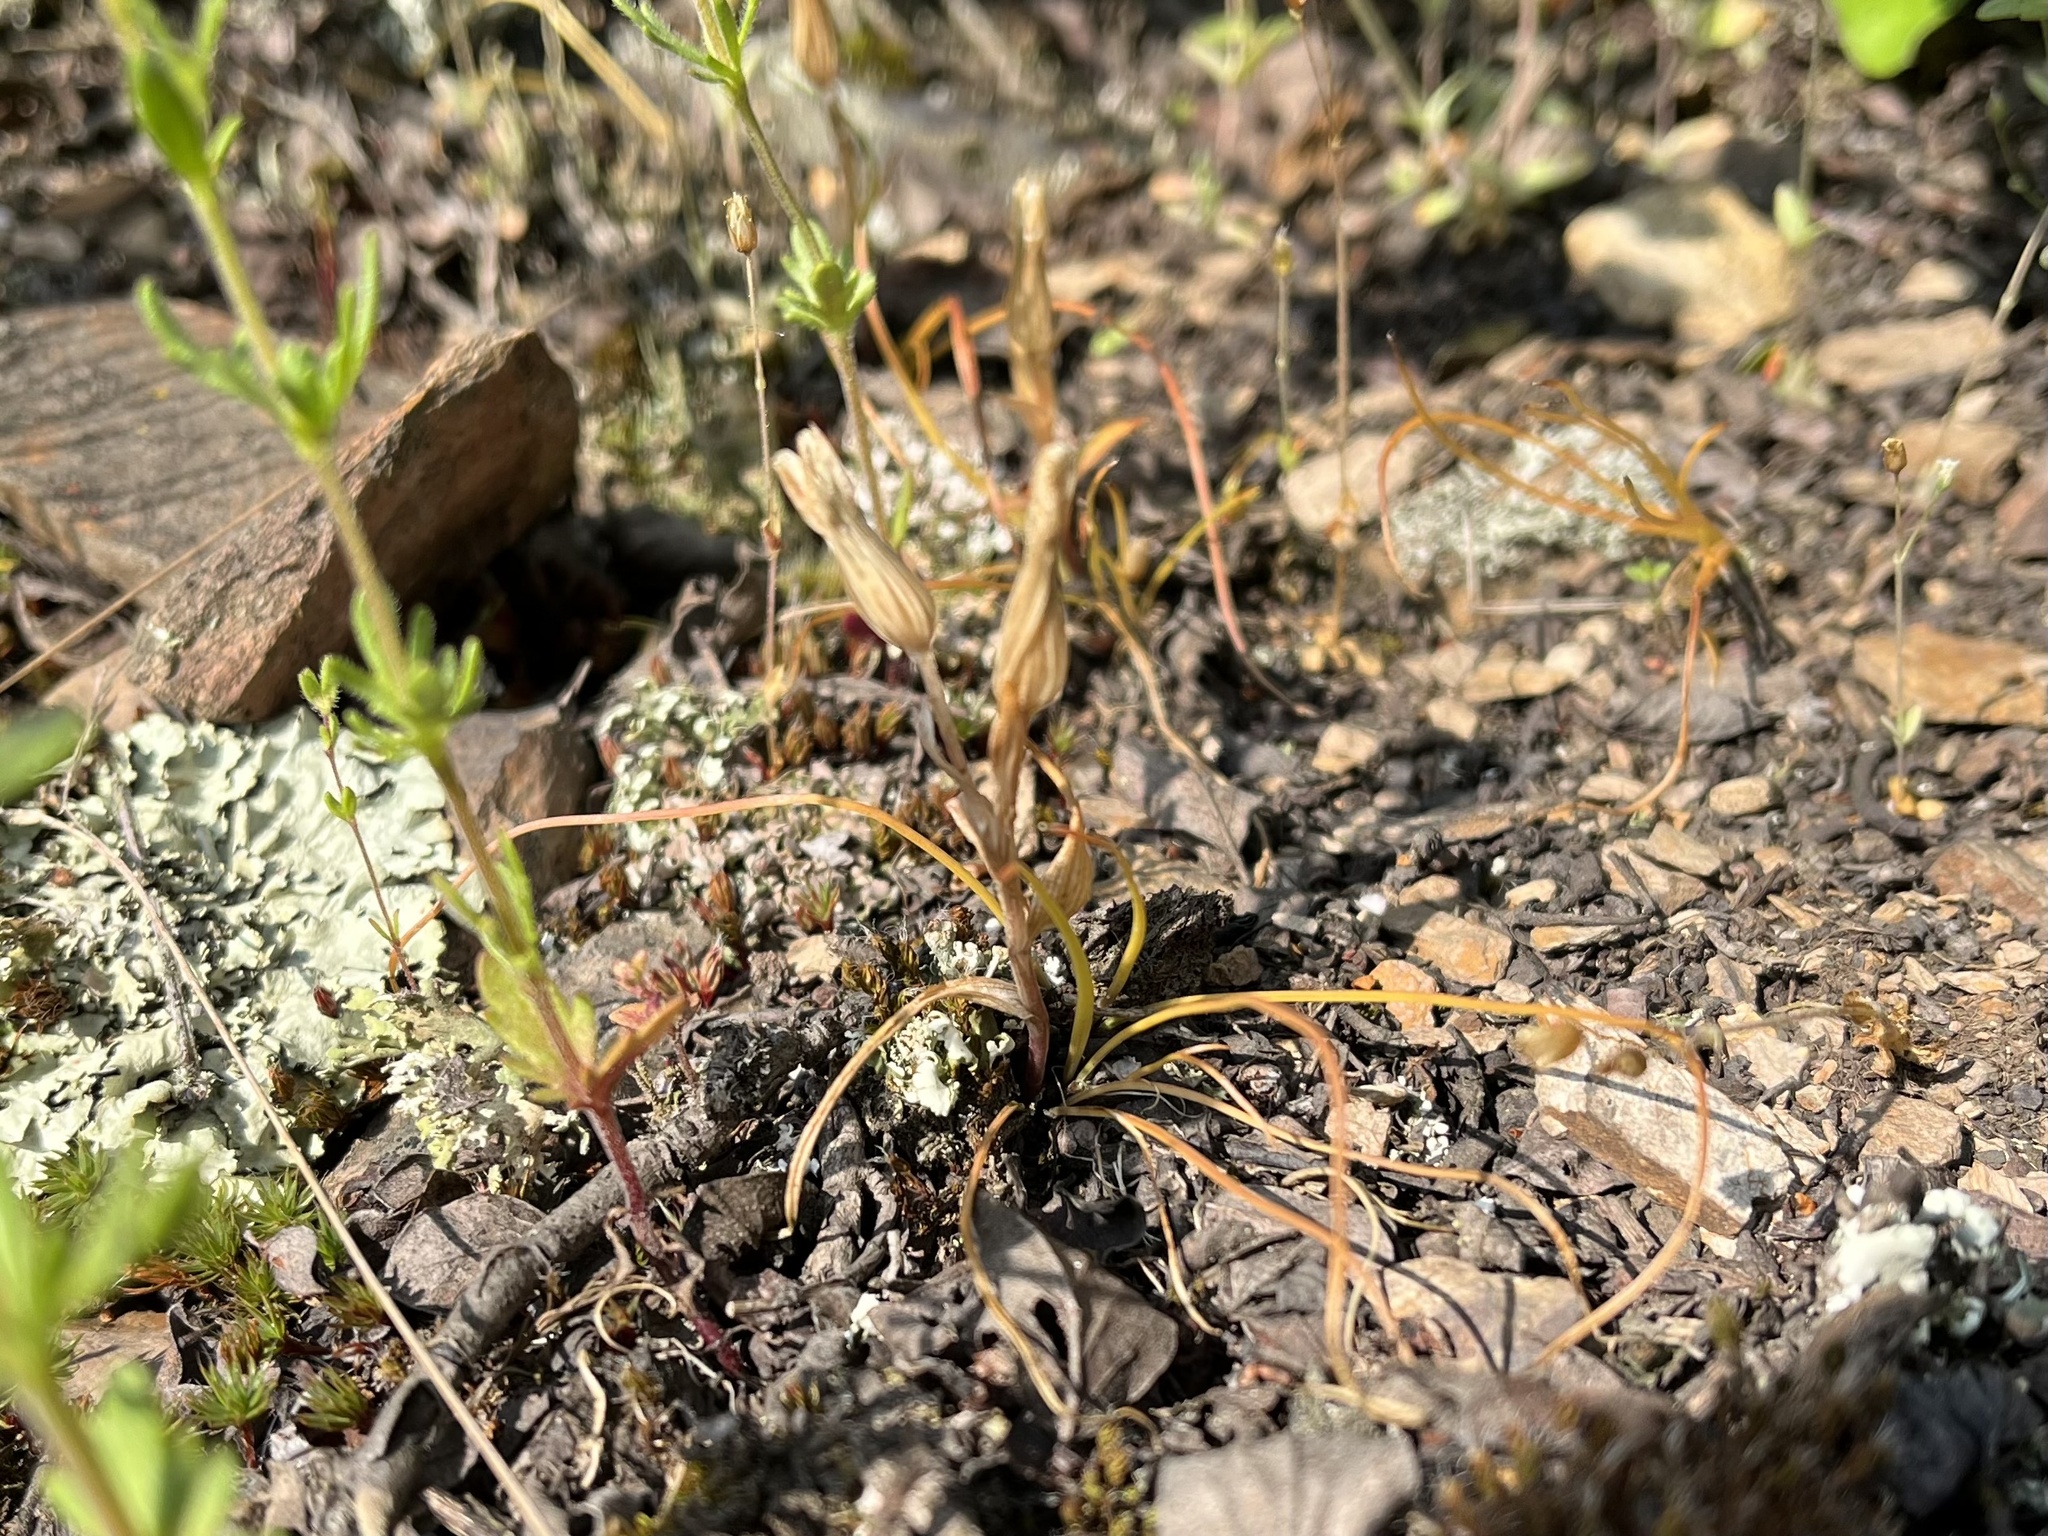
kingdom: Plantae
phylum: Tracheophyta
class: Liliopsida
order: Liliales
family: Liliaceae
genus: Gagea
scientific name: Gagea bohemica
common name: Early star-of-bethlehem
